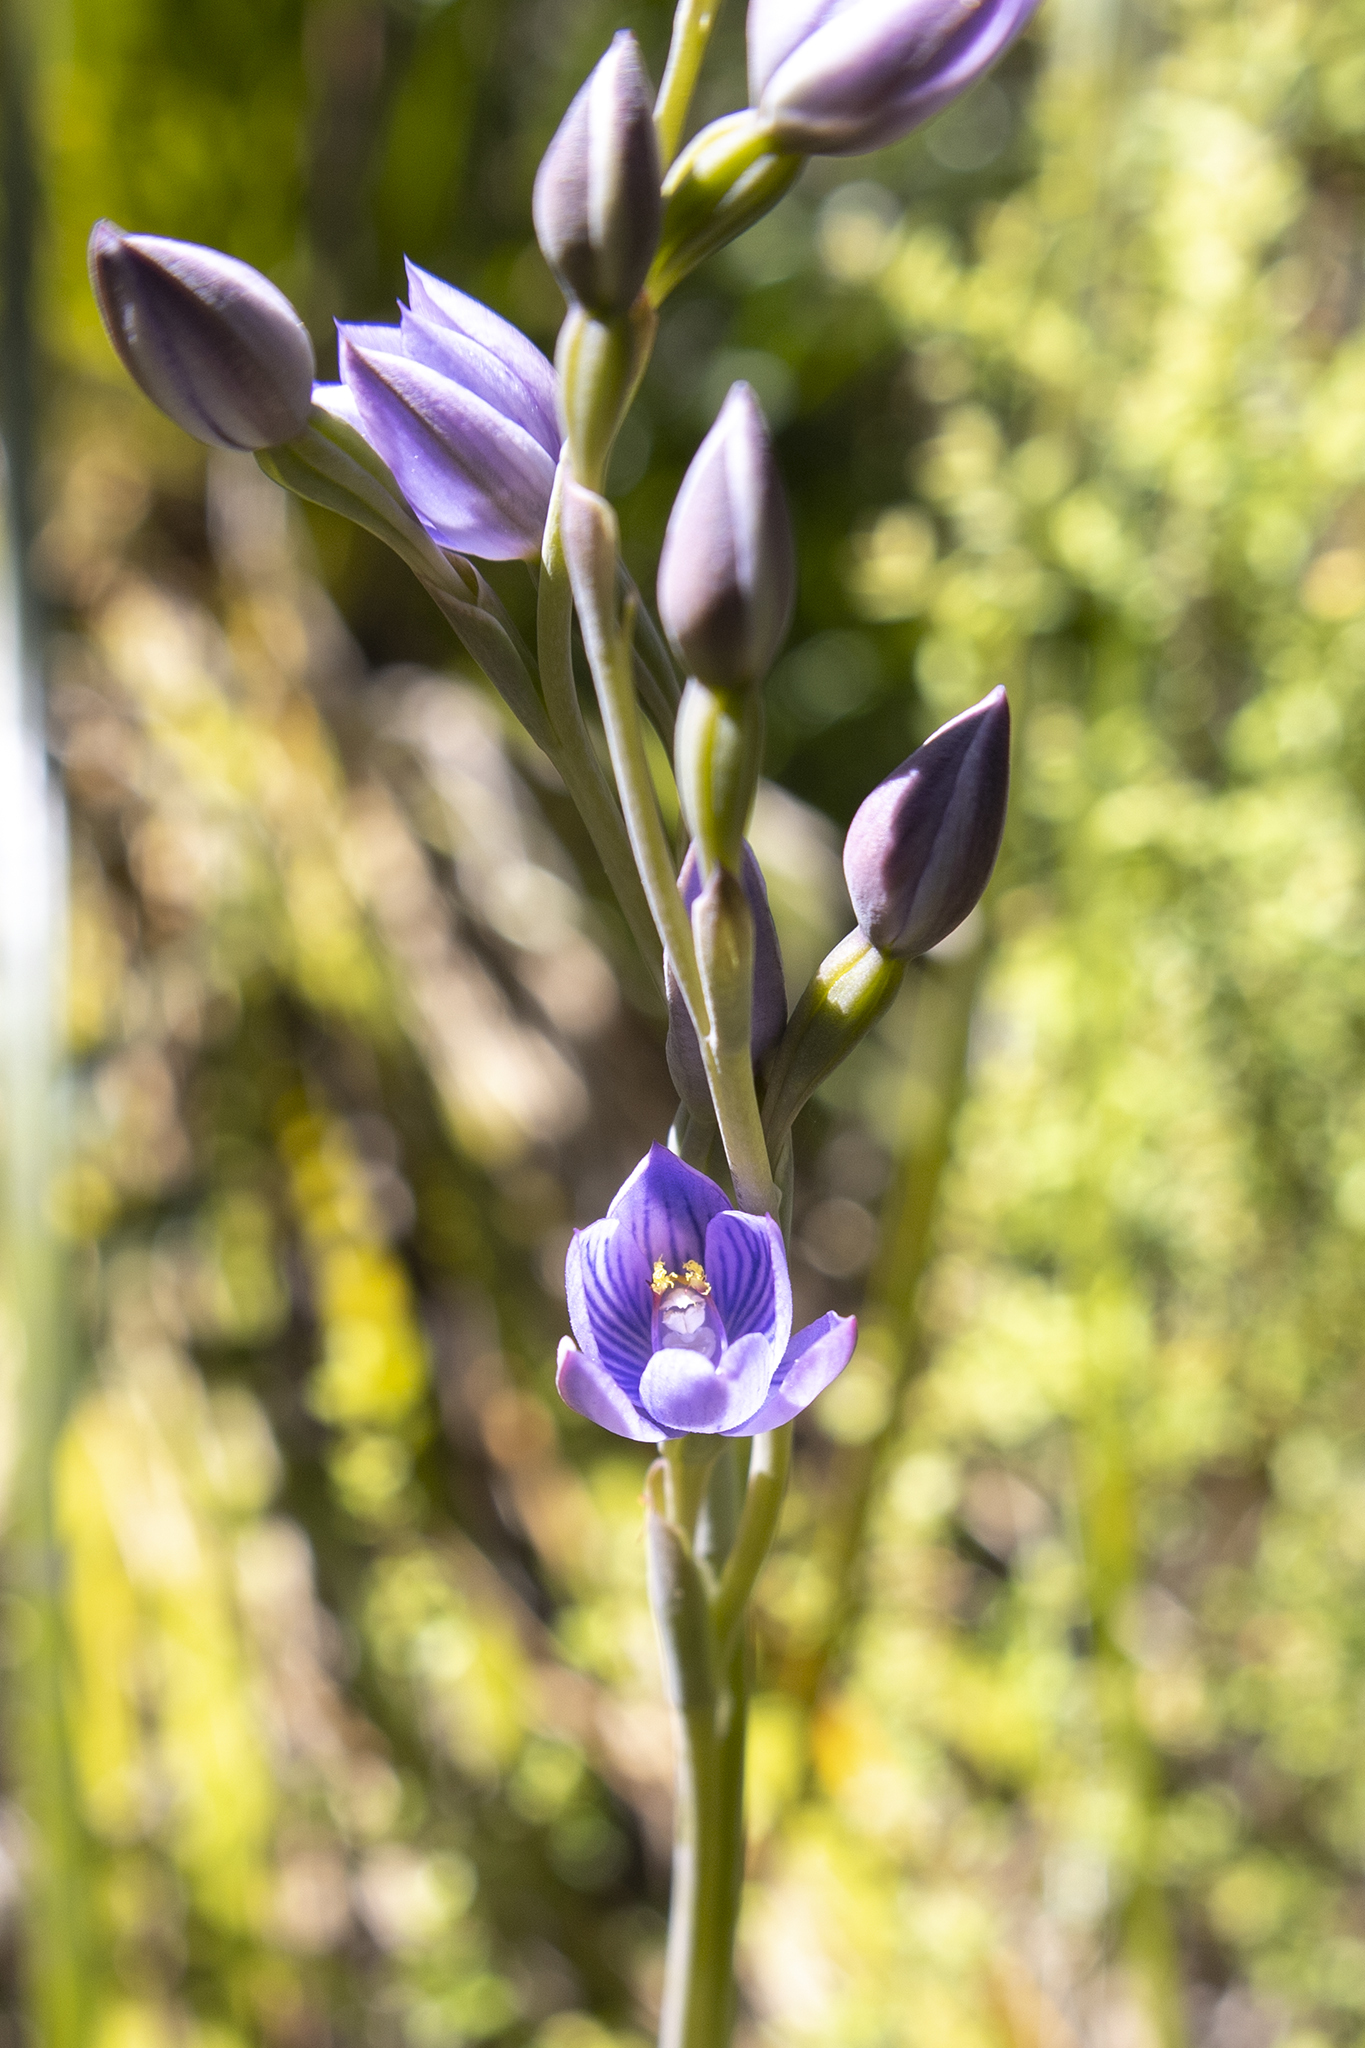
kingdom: Plantae
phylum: Tracheophyta
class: Liliopsida
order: Asparagales
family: Orchidaceae
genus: Thelymitra
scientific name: Thelymitra pulchella
